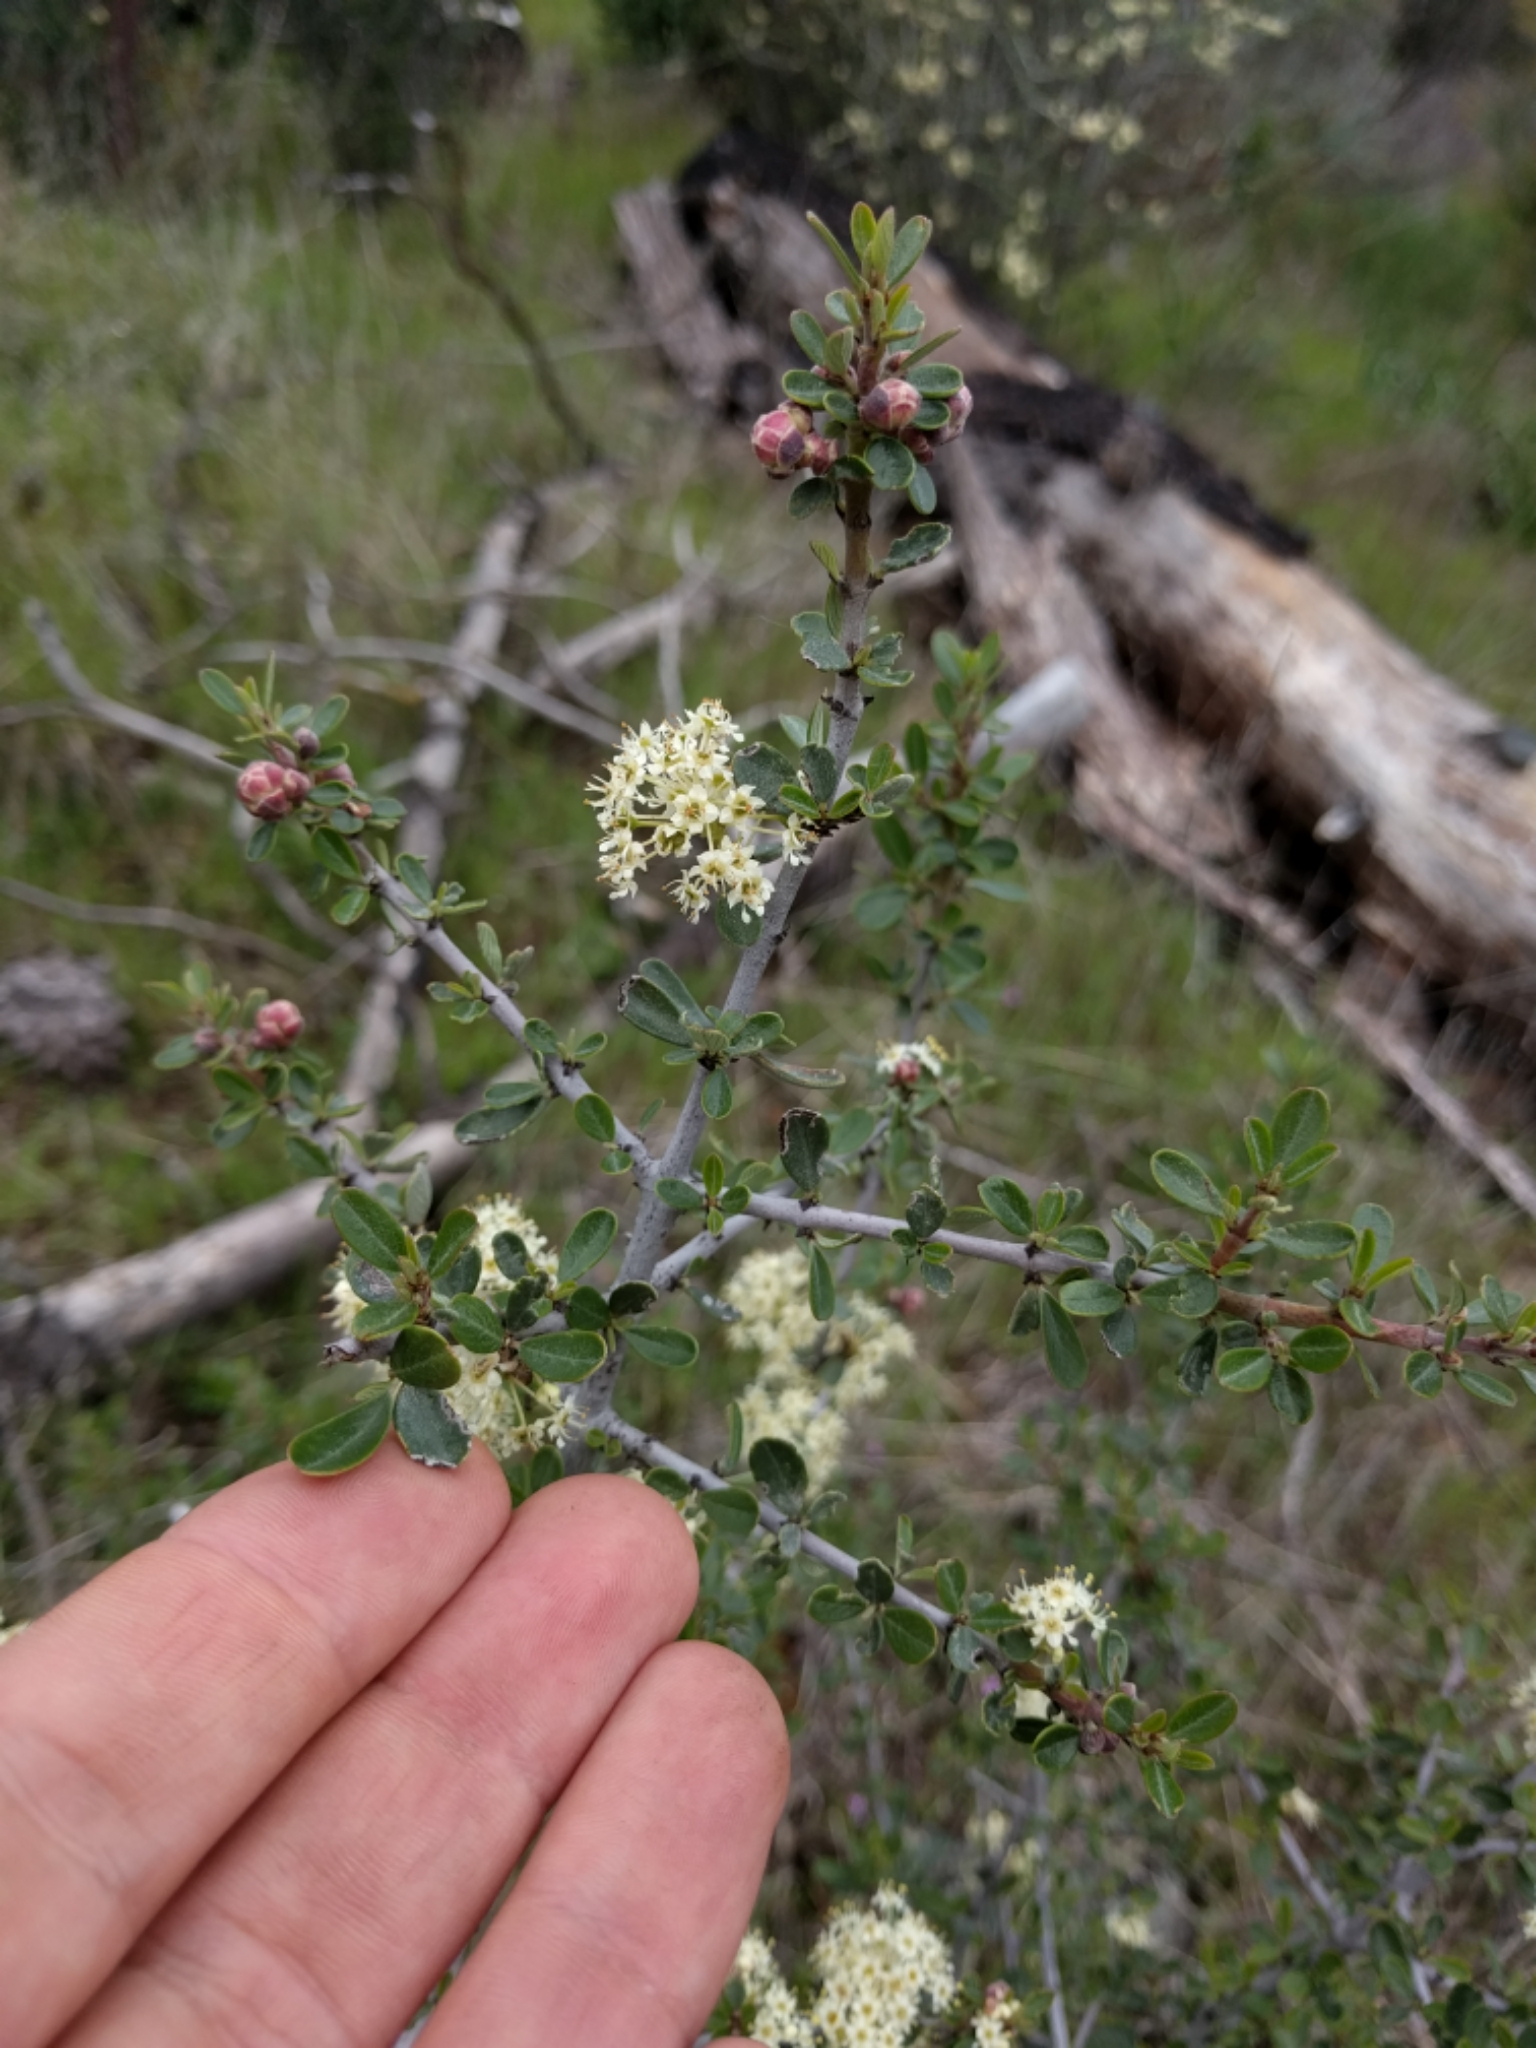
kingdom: Plantae
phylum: Tracheophyta
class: Magnoliopsida
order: Rosales
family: Rhamnaceae
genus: Ceanothus
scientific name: Ceanothus cuneatus
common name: Cuneate ceanothus
